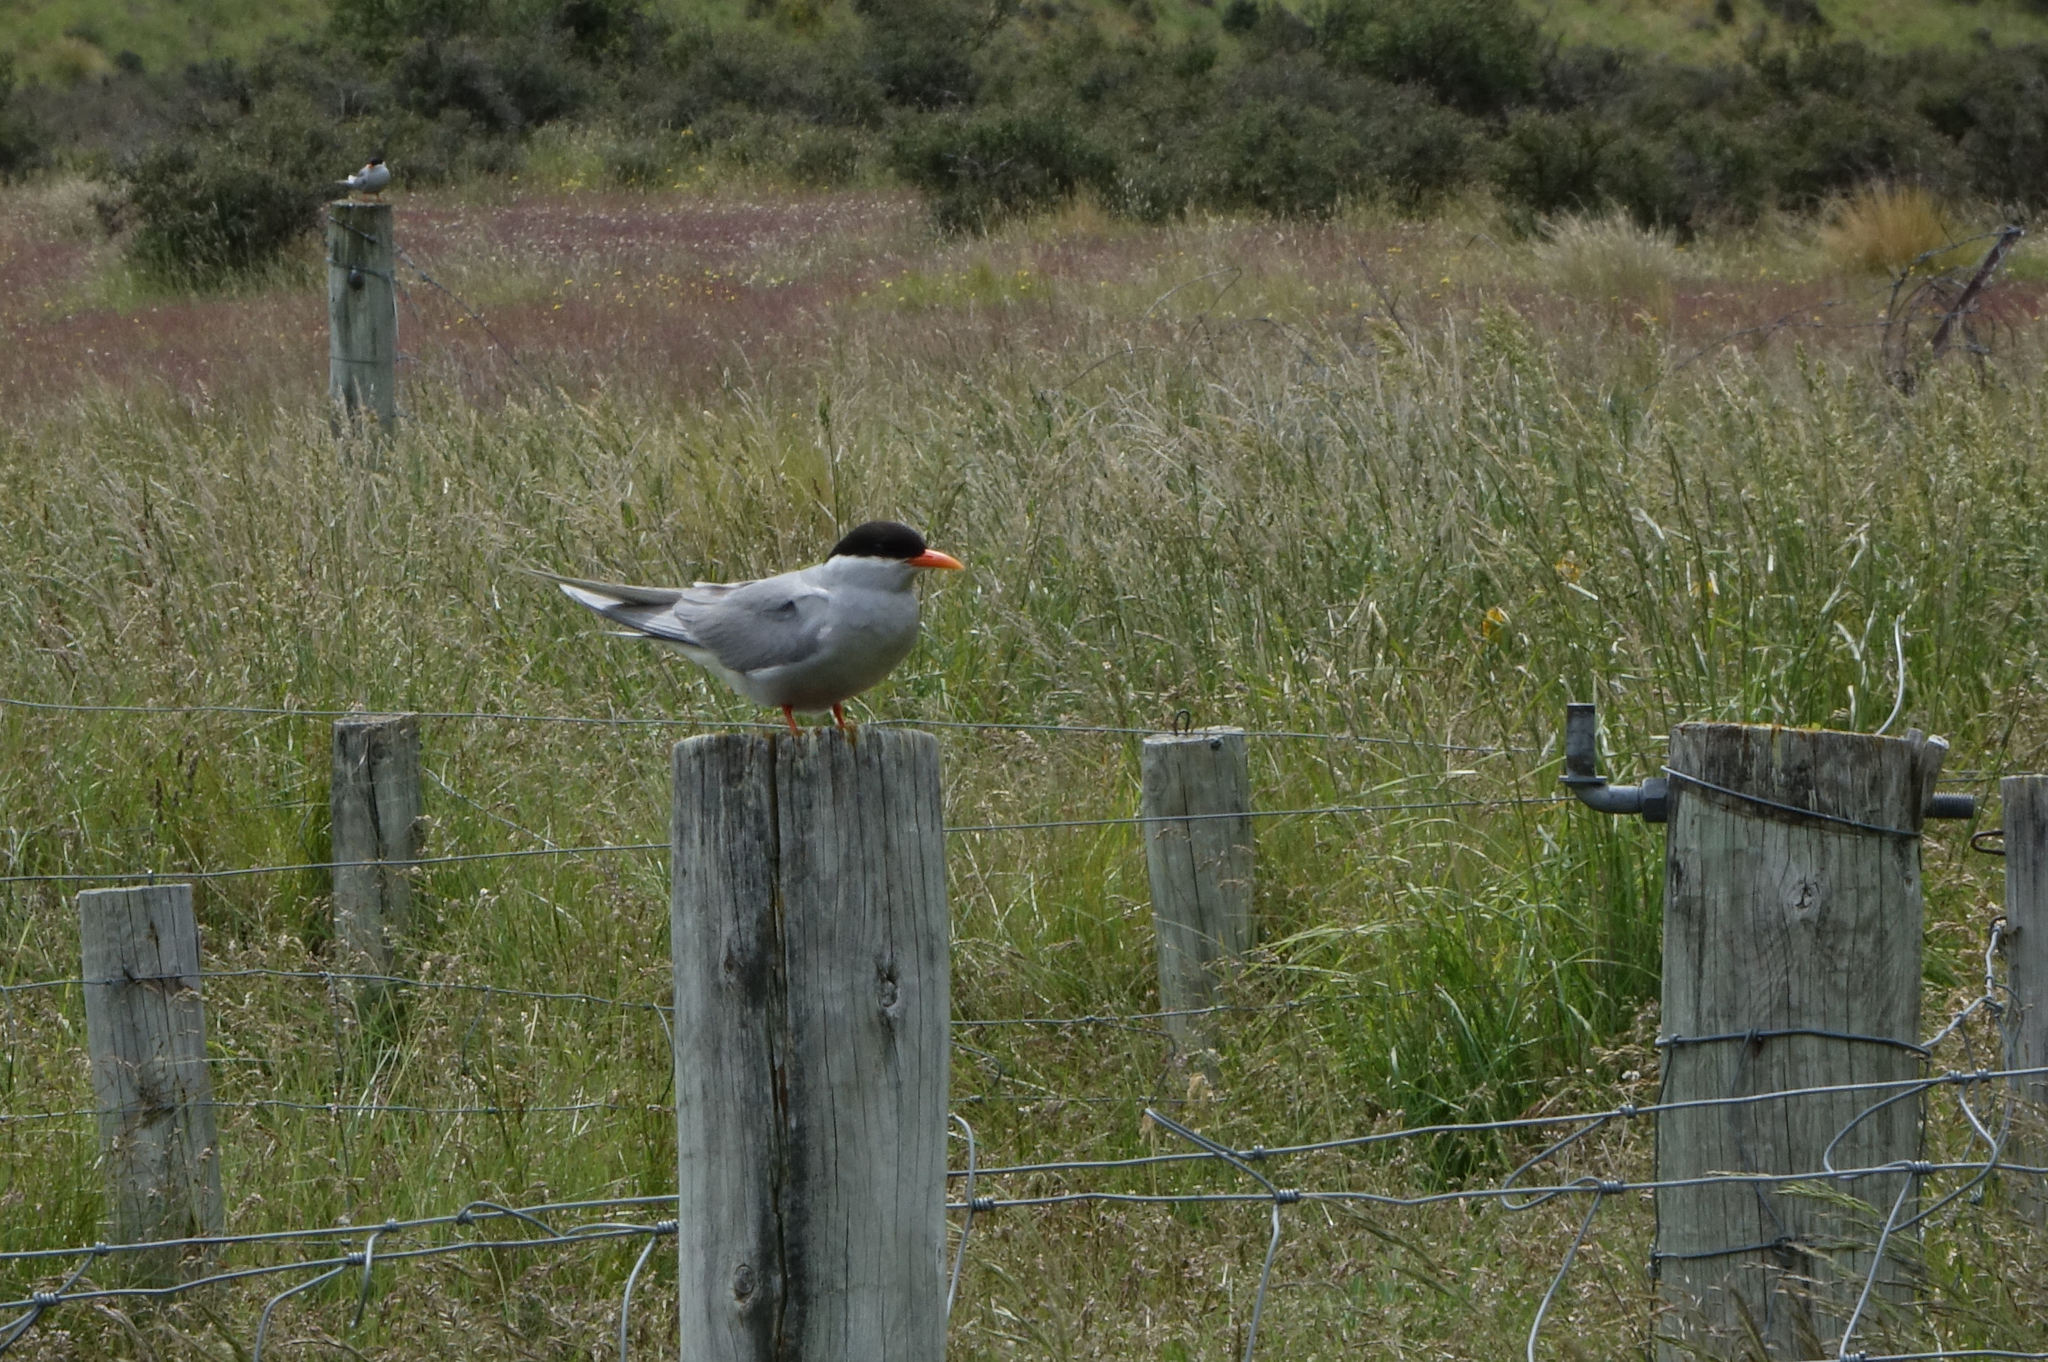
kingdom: Animalia
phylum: Chordata
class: Aves
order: Charadriiformes
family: Laridae
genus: Chlidonias
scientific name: Chlidonias albostriatus
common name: Black-fronted tern
